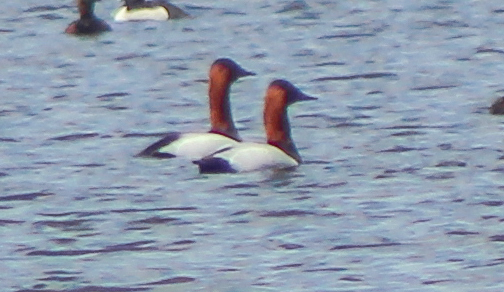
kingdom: Animalia
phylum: Chordata
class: Aves
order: Anseriformes
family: Anatidae
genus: Aythya
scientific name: Aythya valisineria
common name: Canvasback
